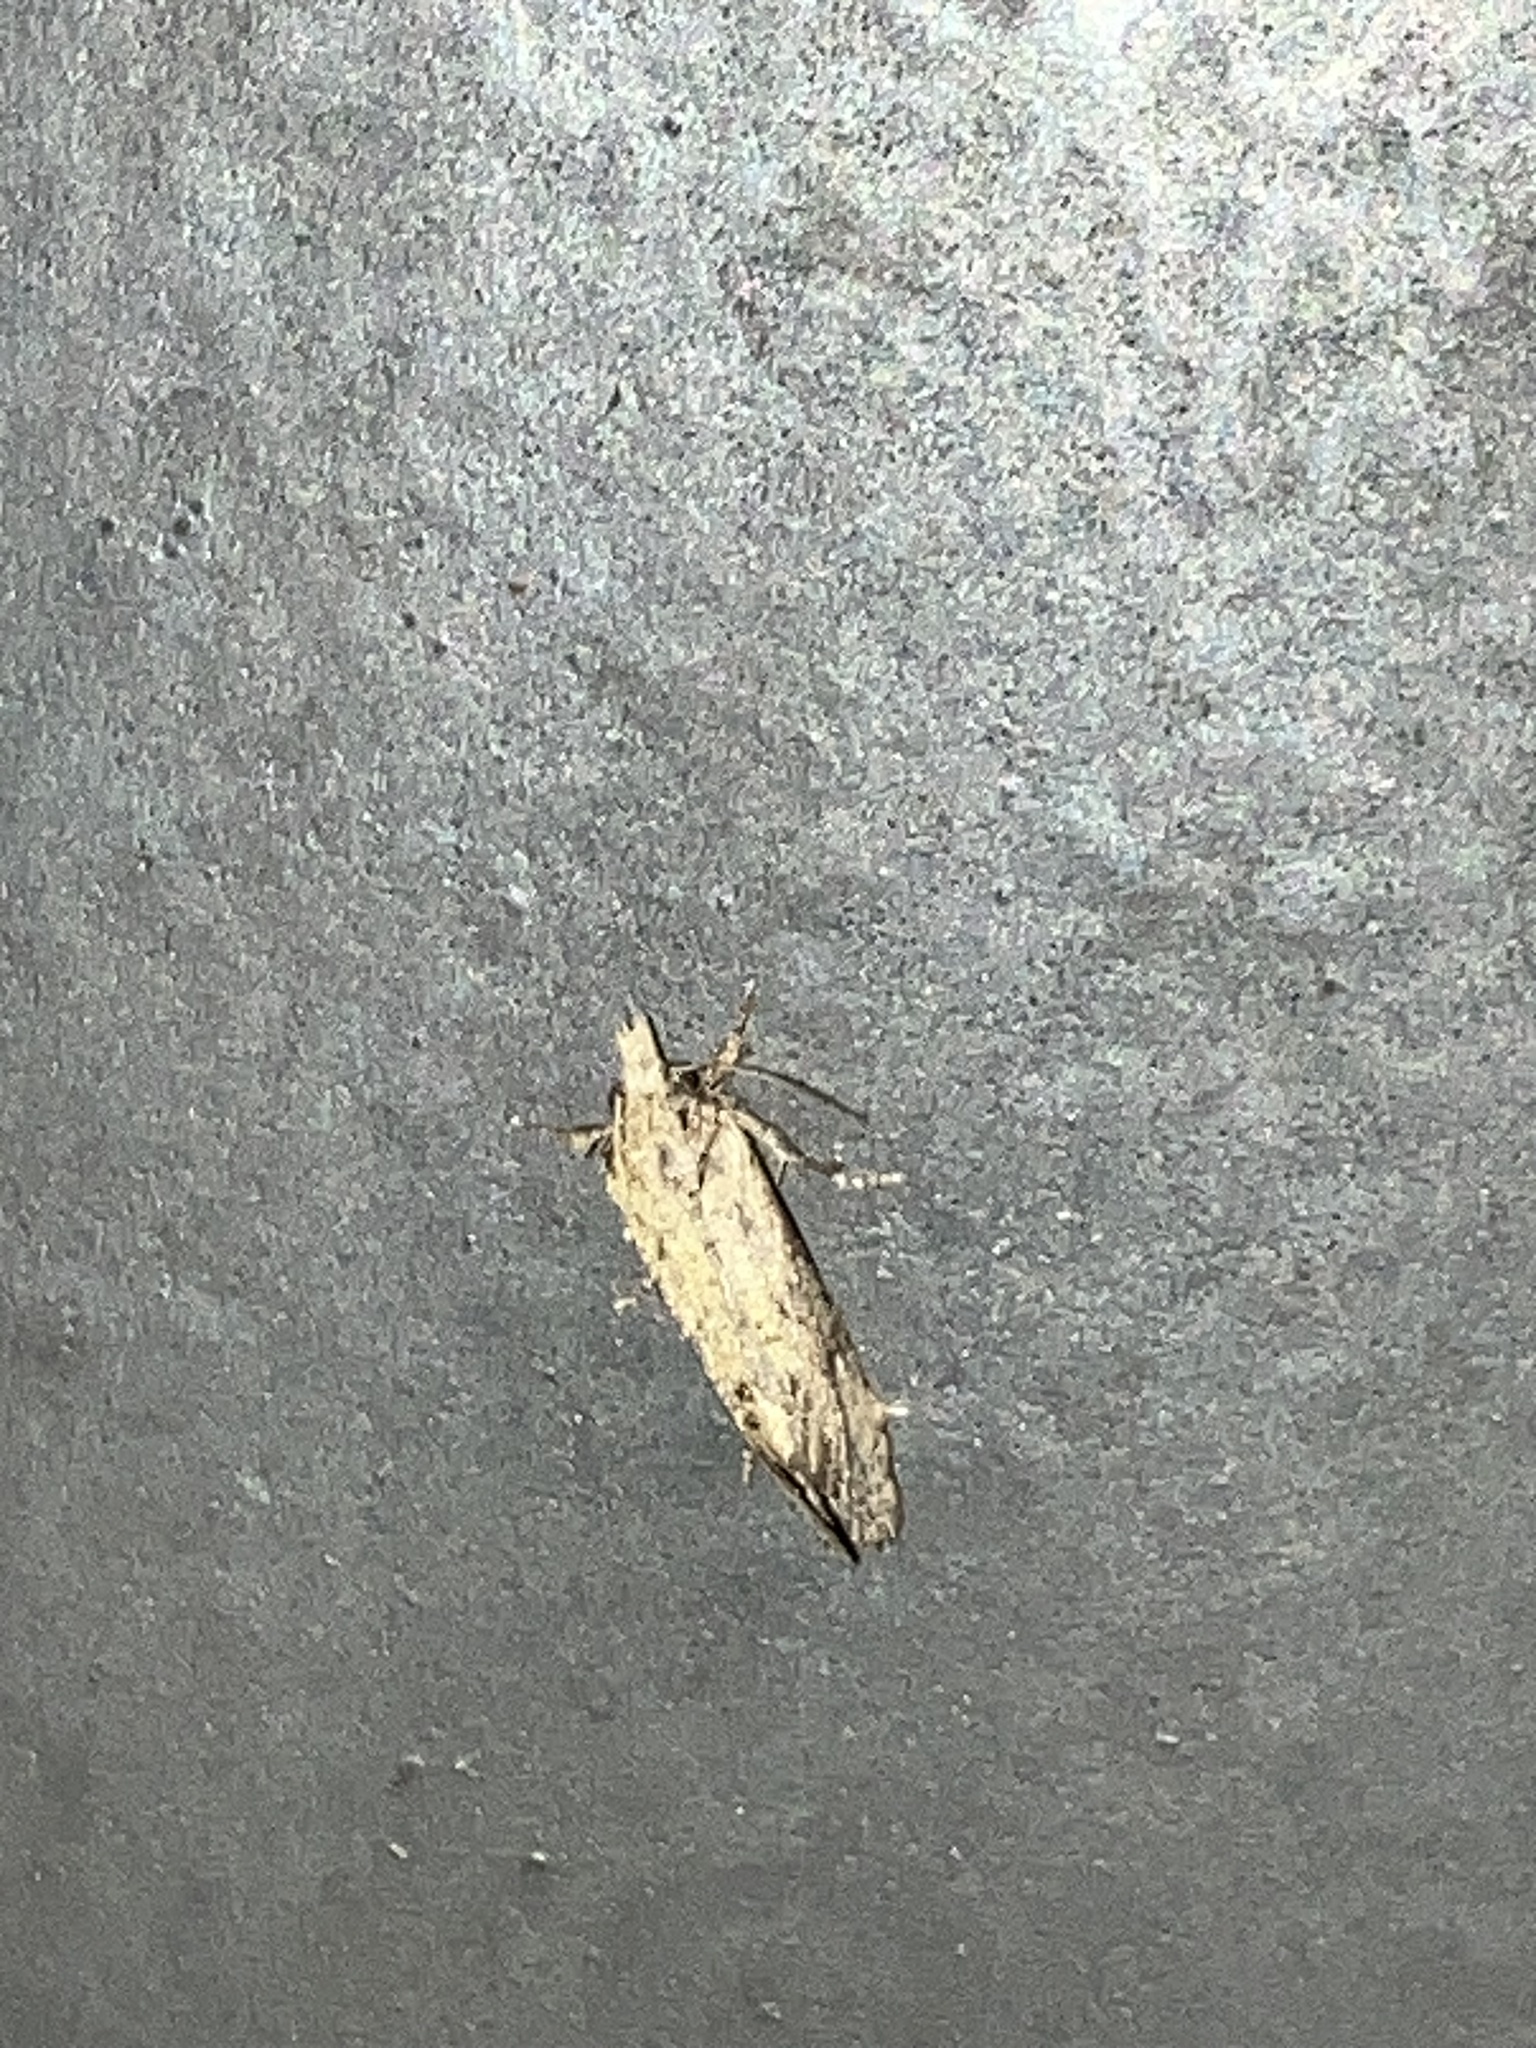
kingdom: Animalia
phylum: Arthropoda
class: Insecta
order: Lepidoptera
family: Tineidae
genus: Acrolophus
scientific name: Acrolophus walsinghami
